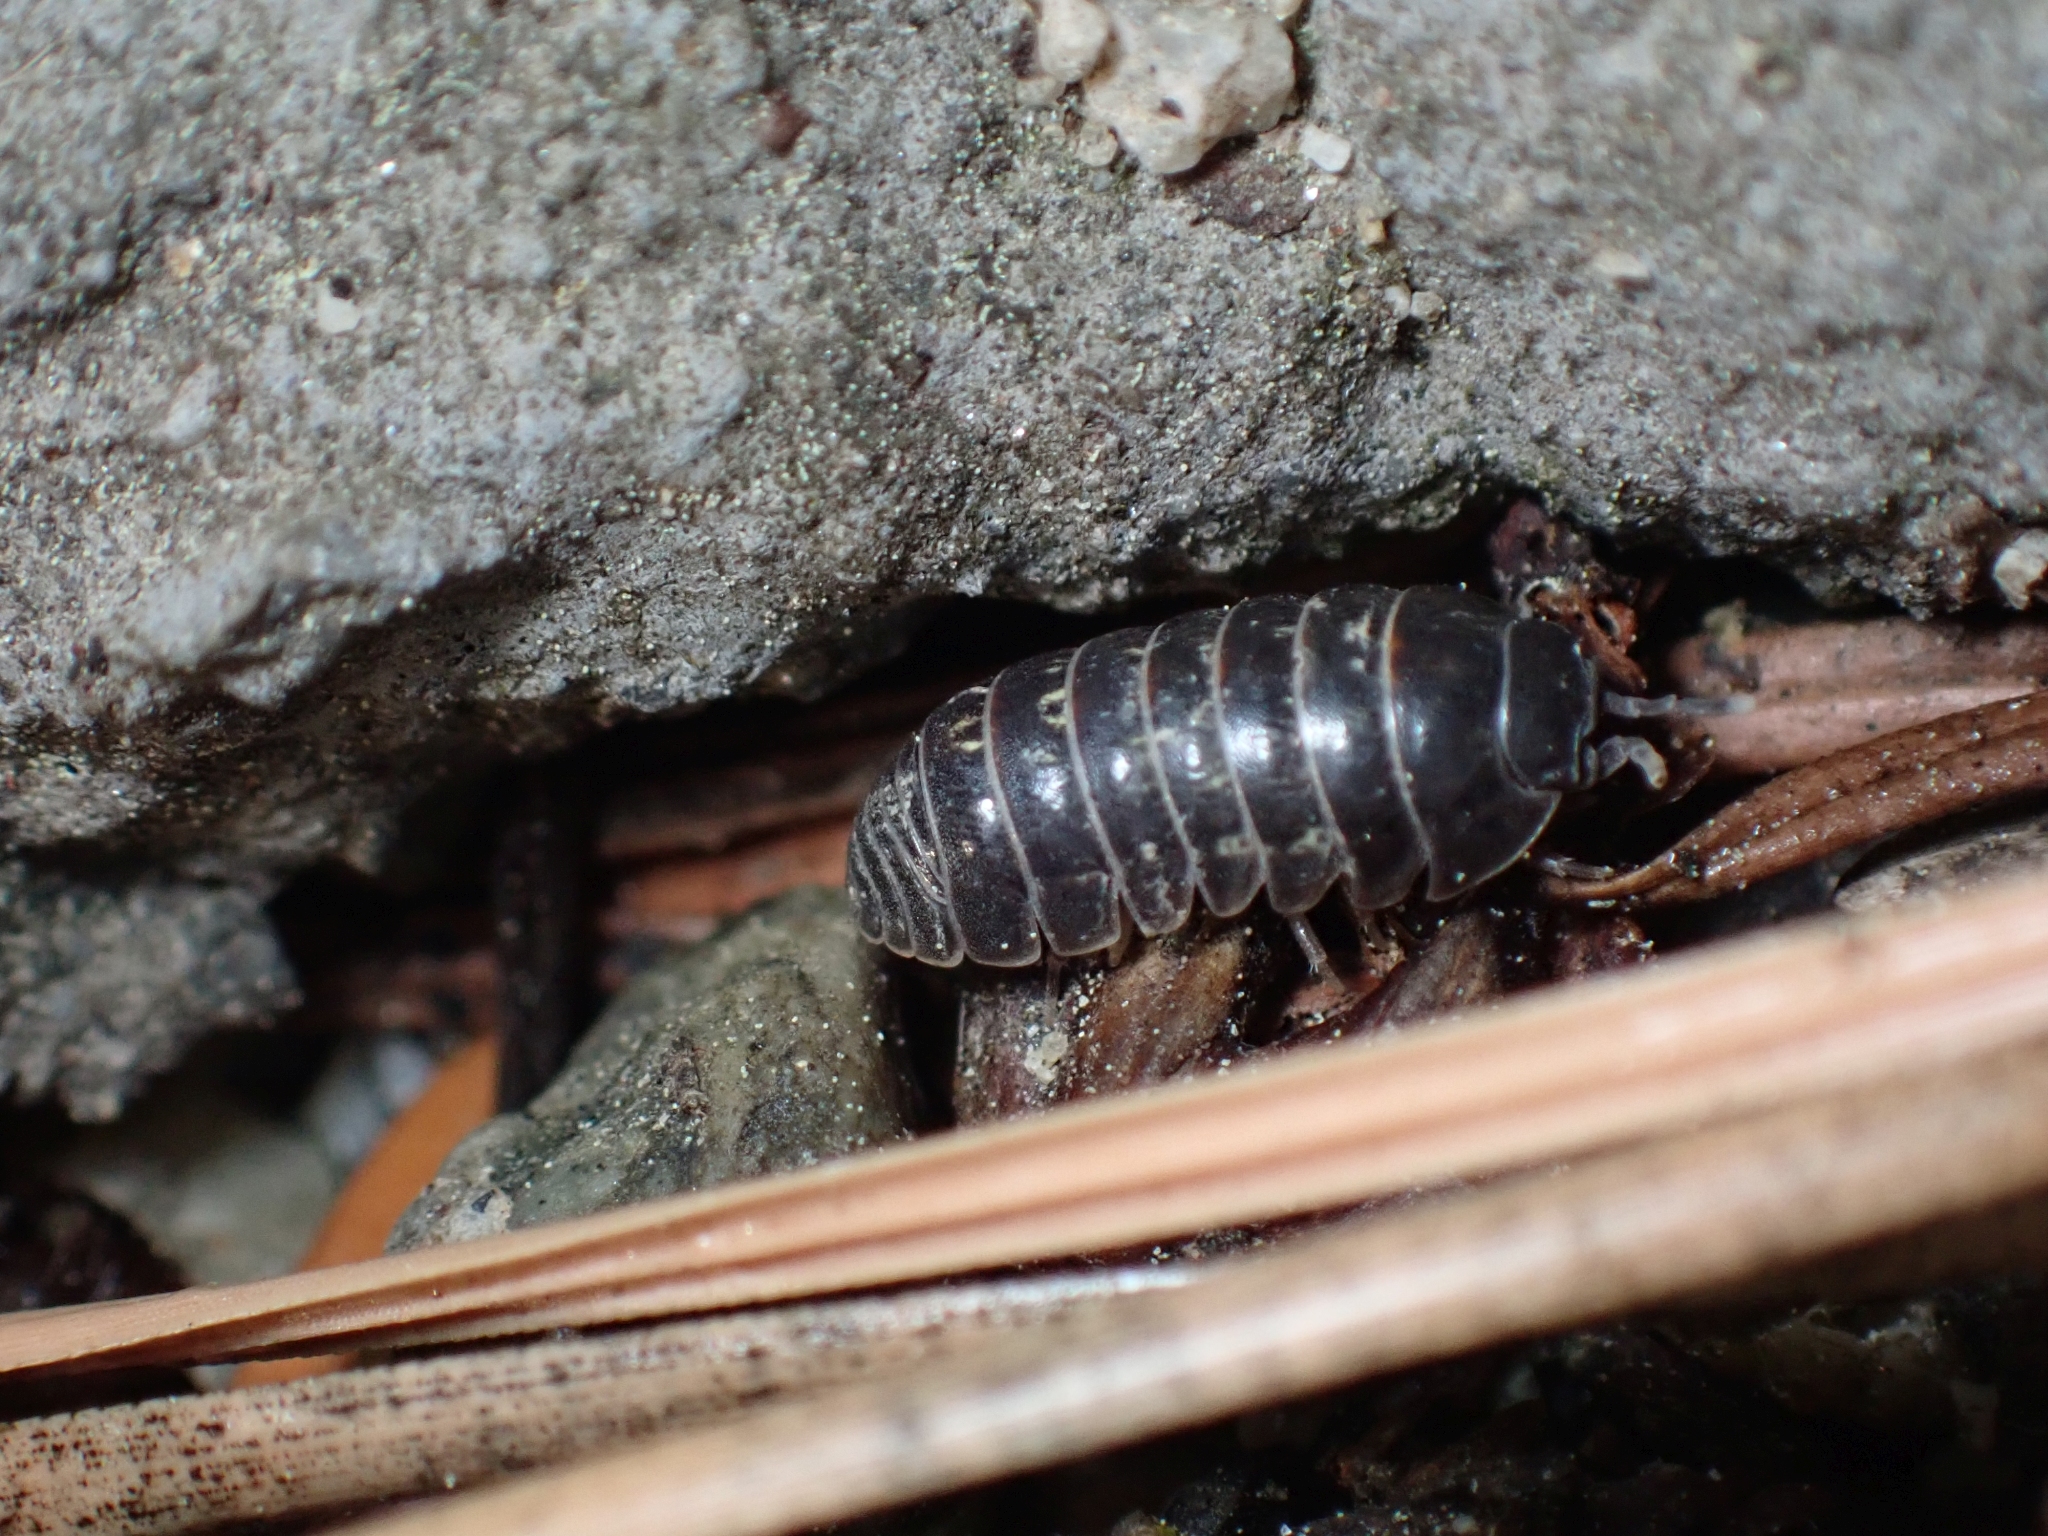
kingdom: Animalia
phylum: Arthropoda
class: Malacostraca
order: Isopoda
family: Armadillidiidae
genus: Armadillidium
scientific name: Armadillidium vulgare
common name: Common pill woodlouse
